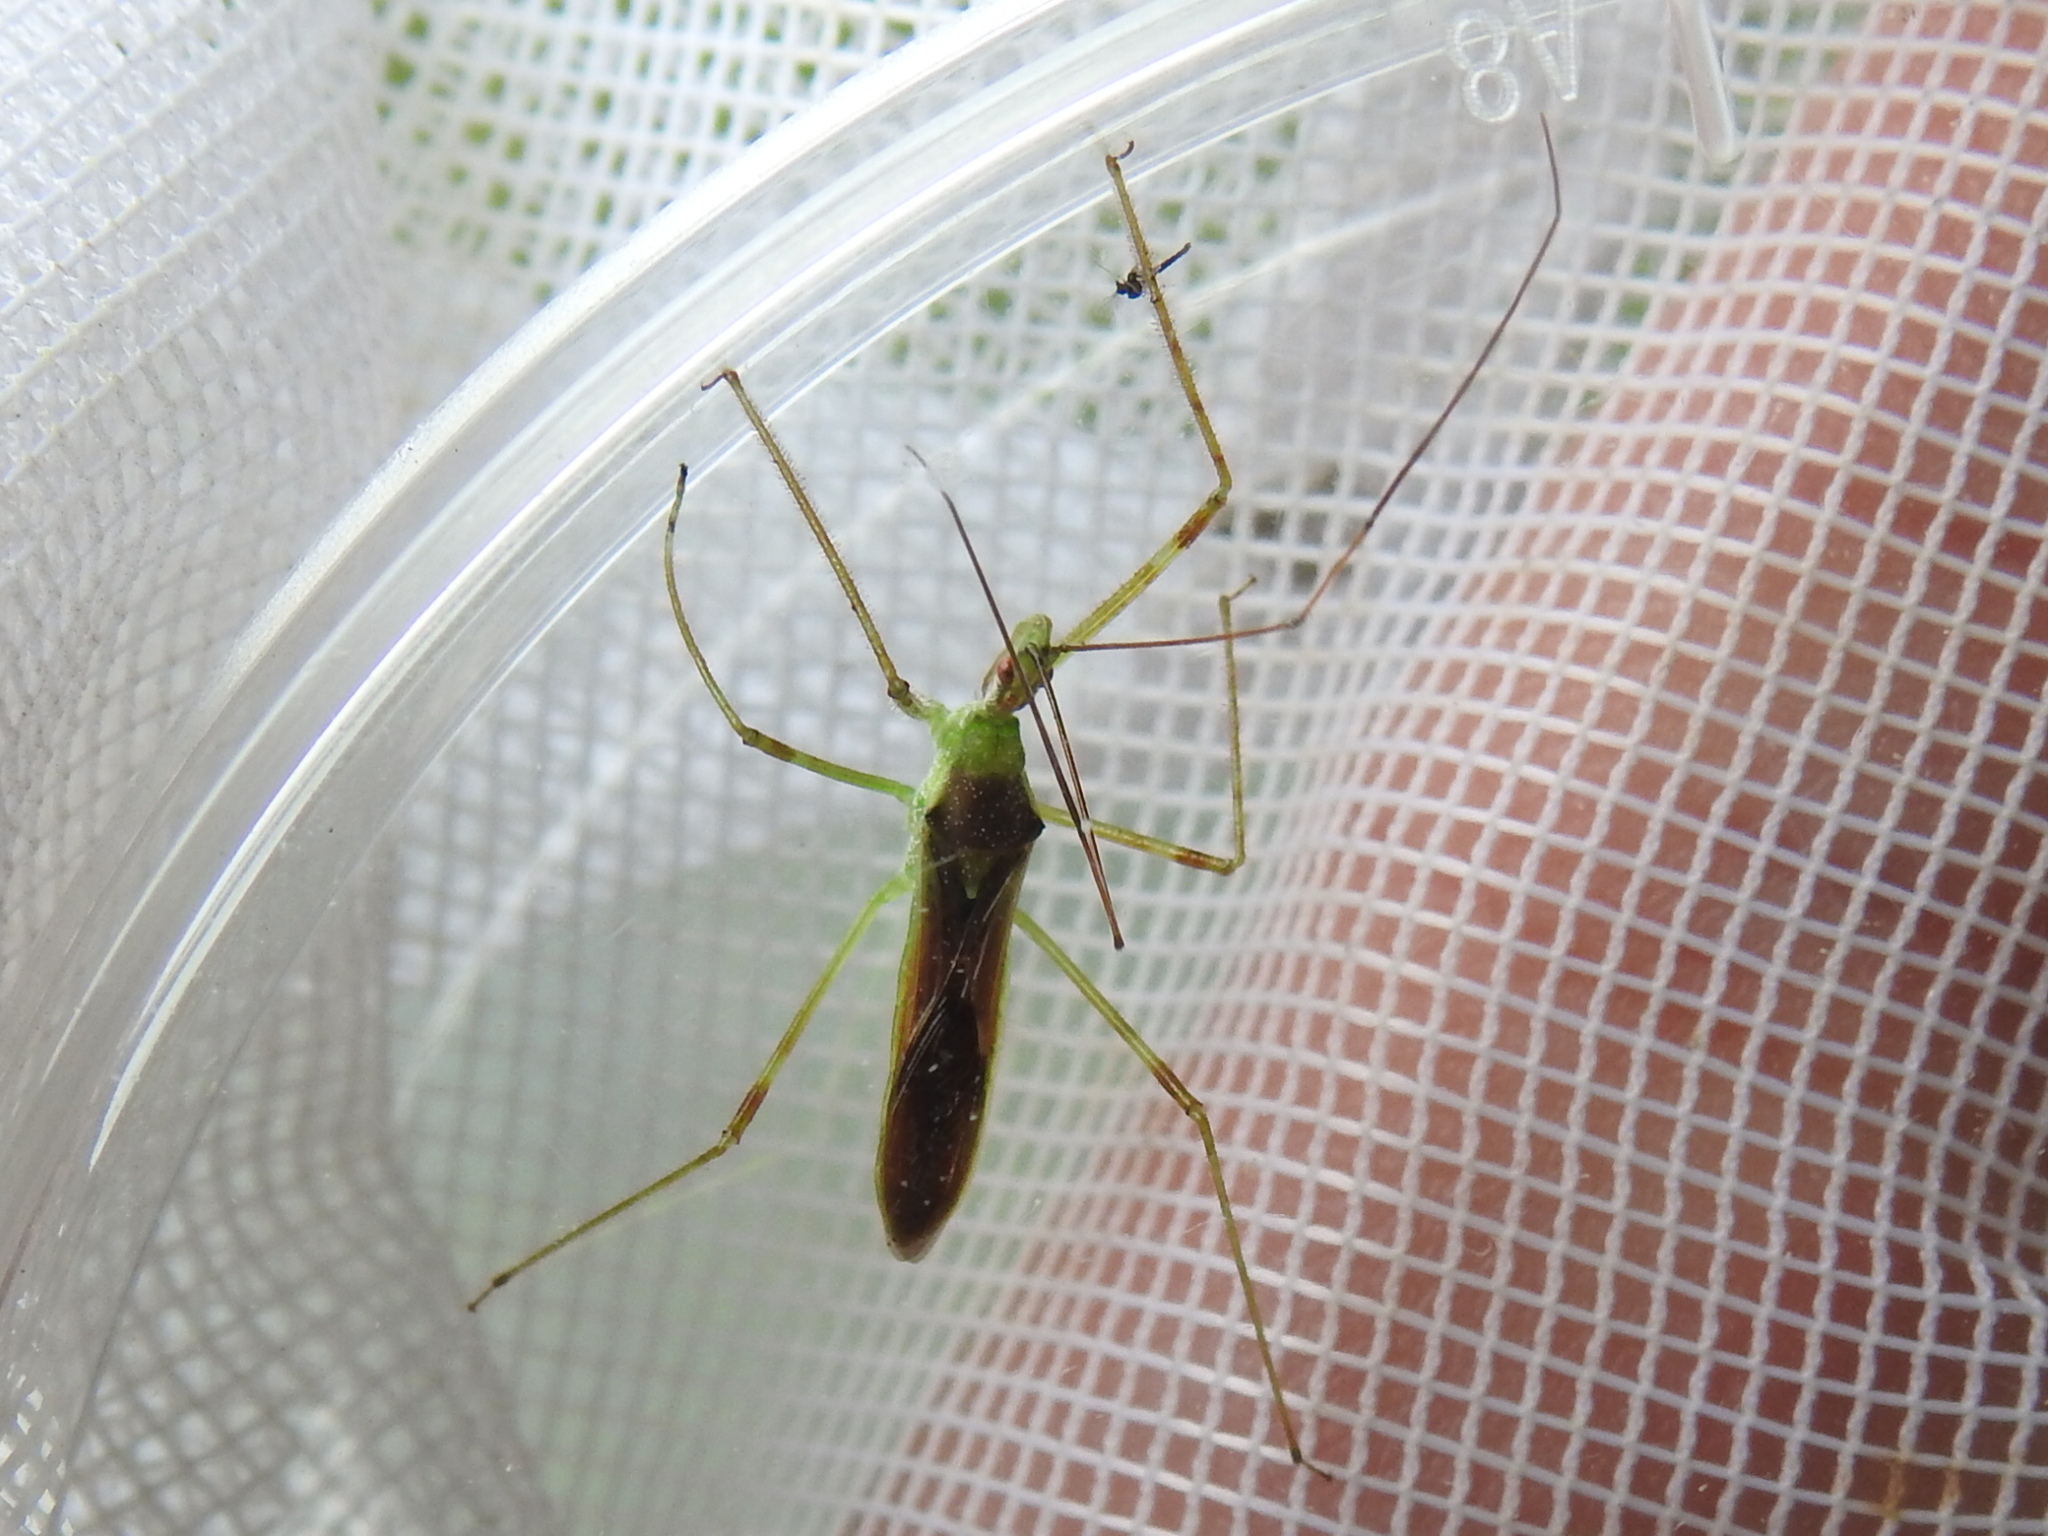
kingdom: Animalia
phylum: Arthropoda
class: Insecta
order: Hemiptera
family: Reduviidae
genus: Zelus
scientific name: Zelus luridus
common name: Pale green assassin bug
